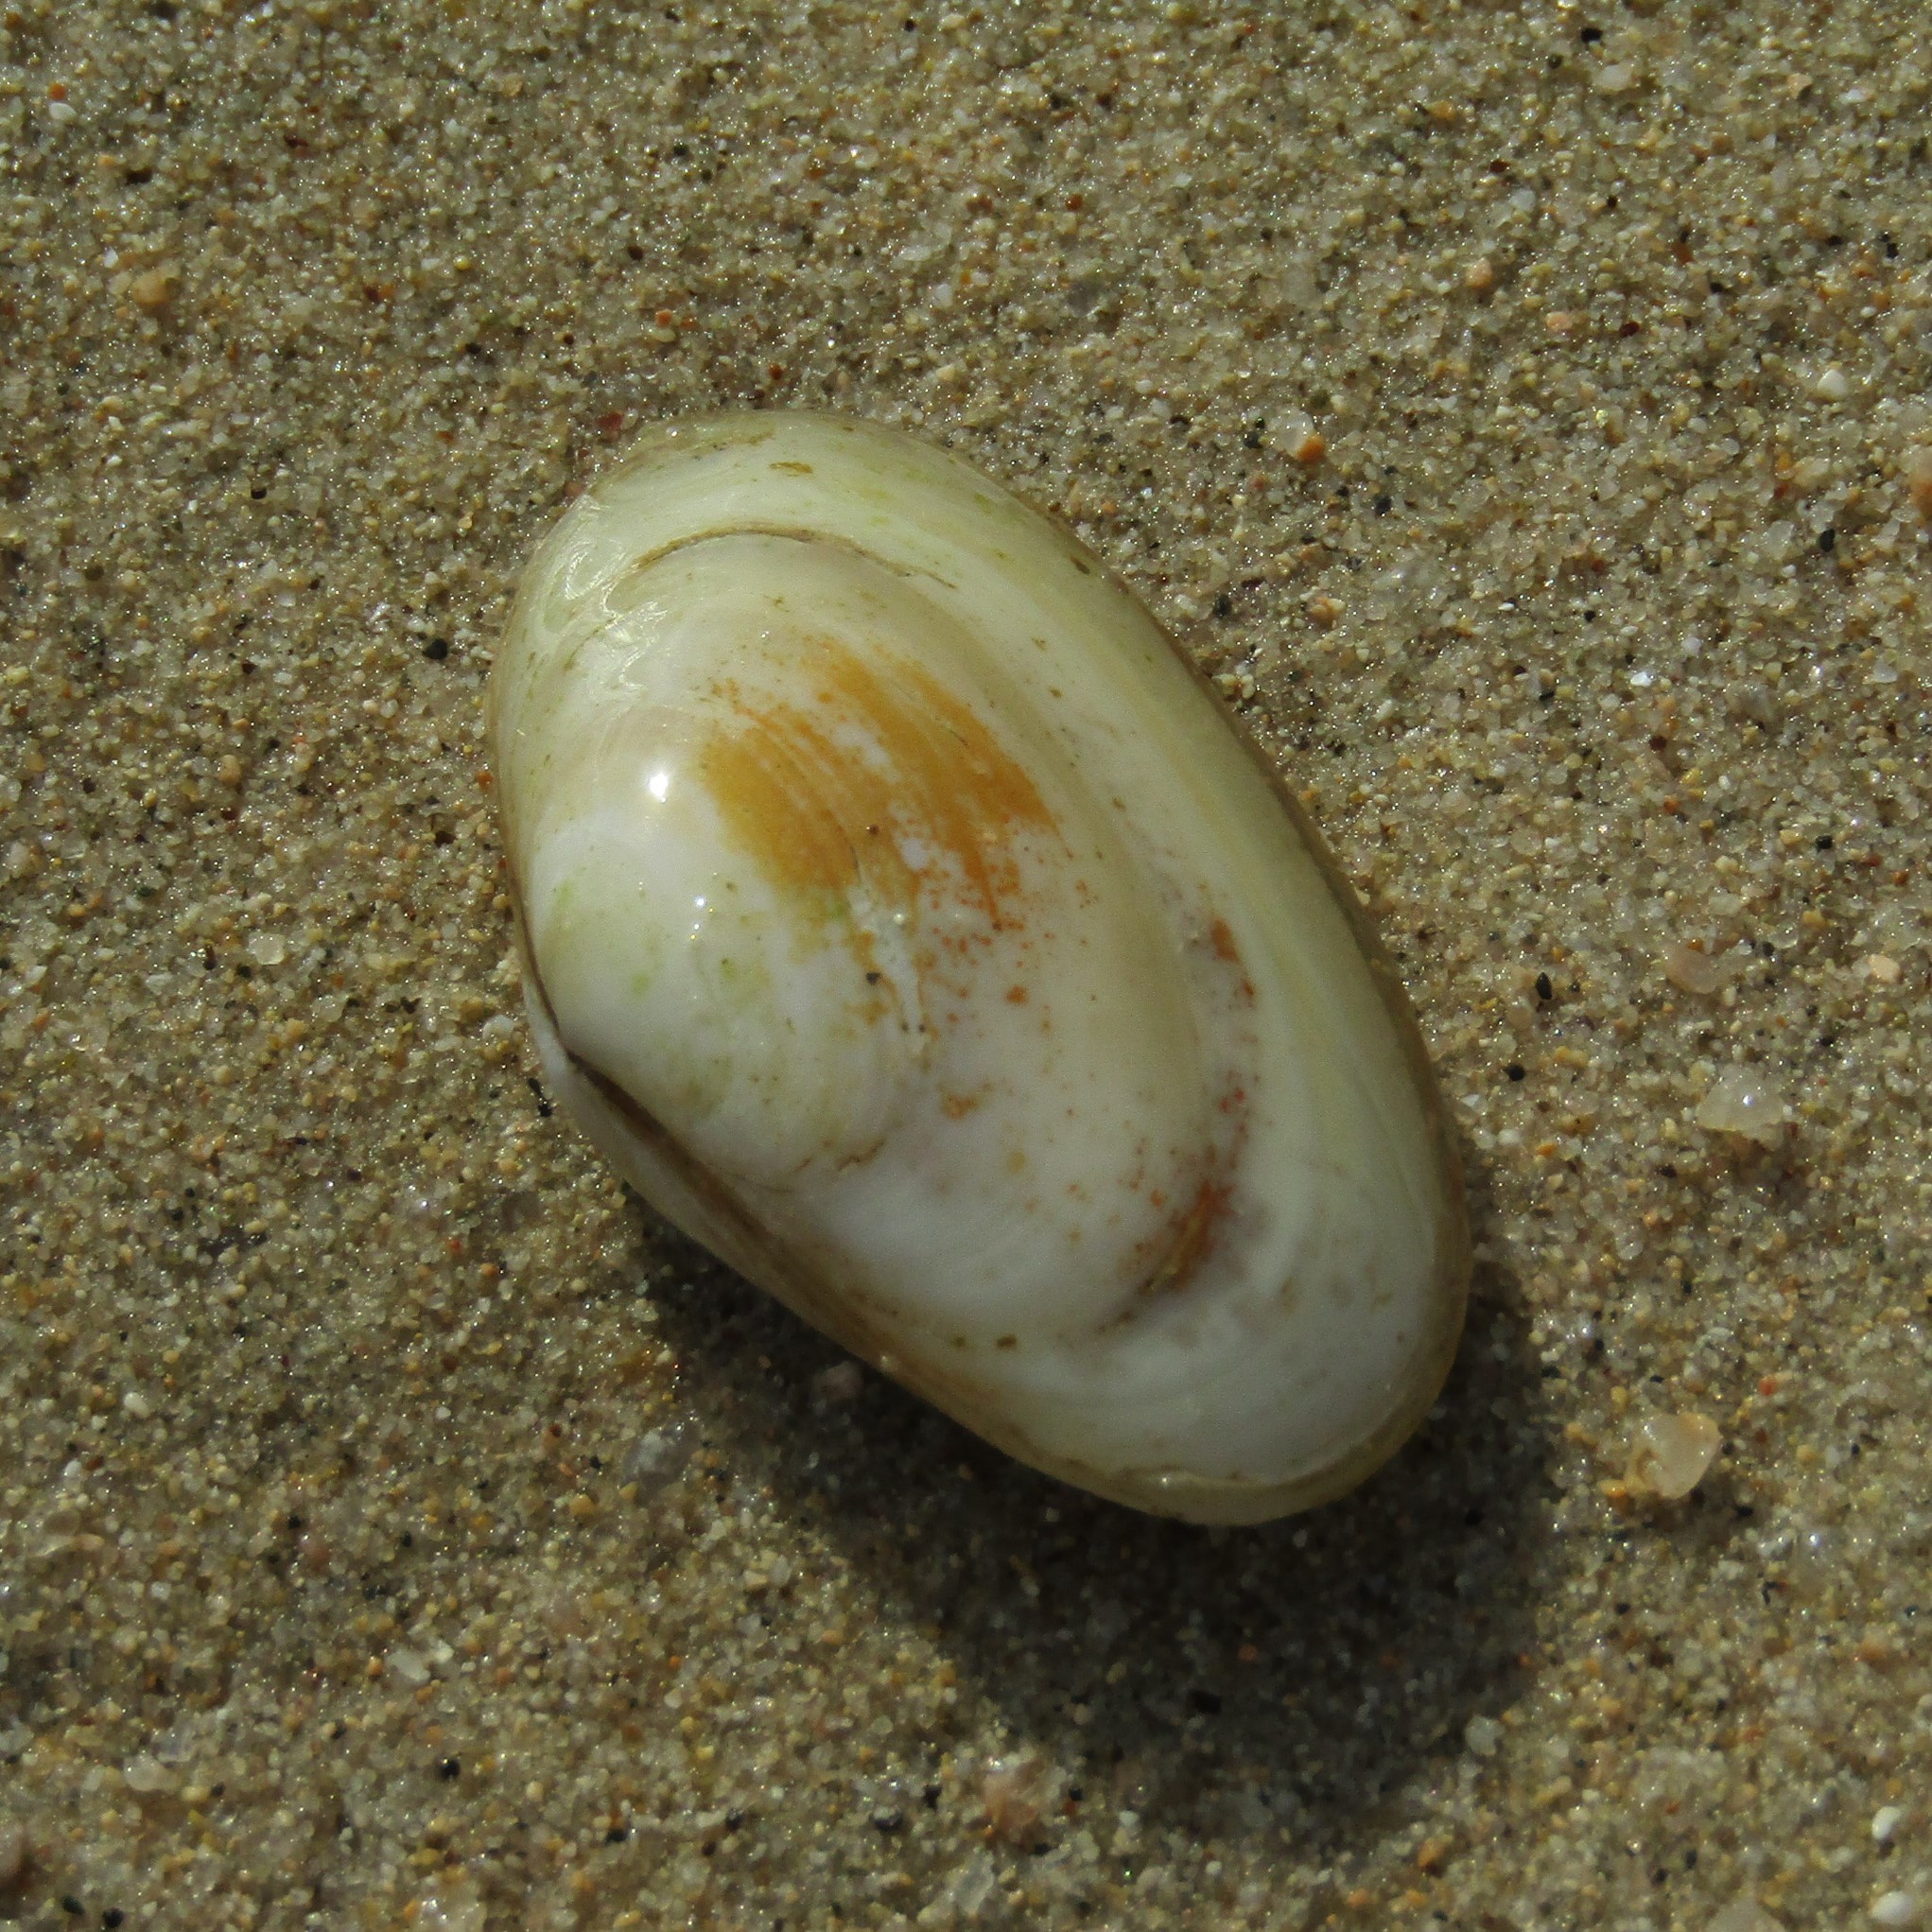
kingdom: Animalia
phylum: Mollusca
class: Bivalvia
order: Venerida
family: Mesodesmatidae
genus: Paphies
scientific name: Paphies australis
